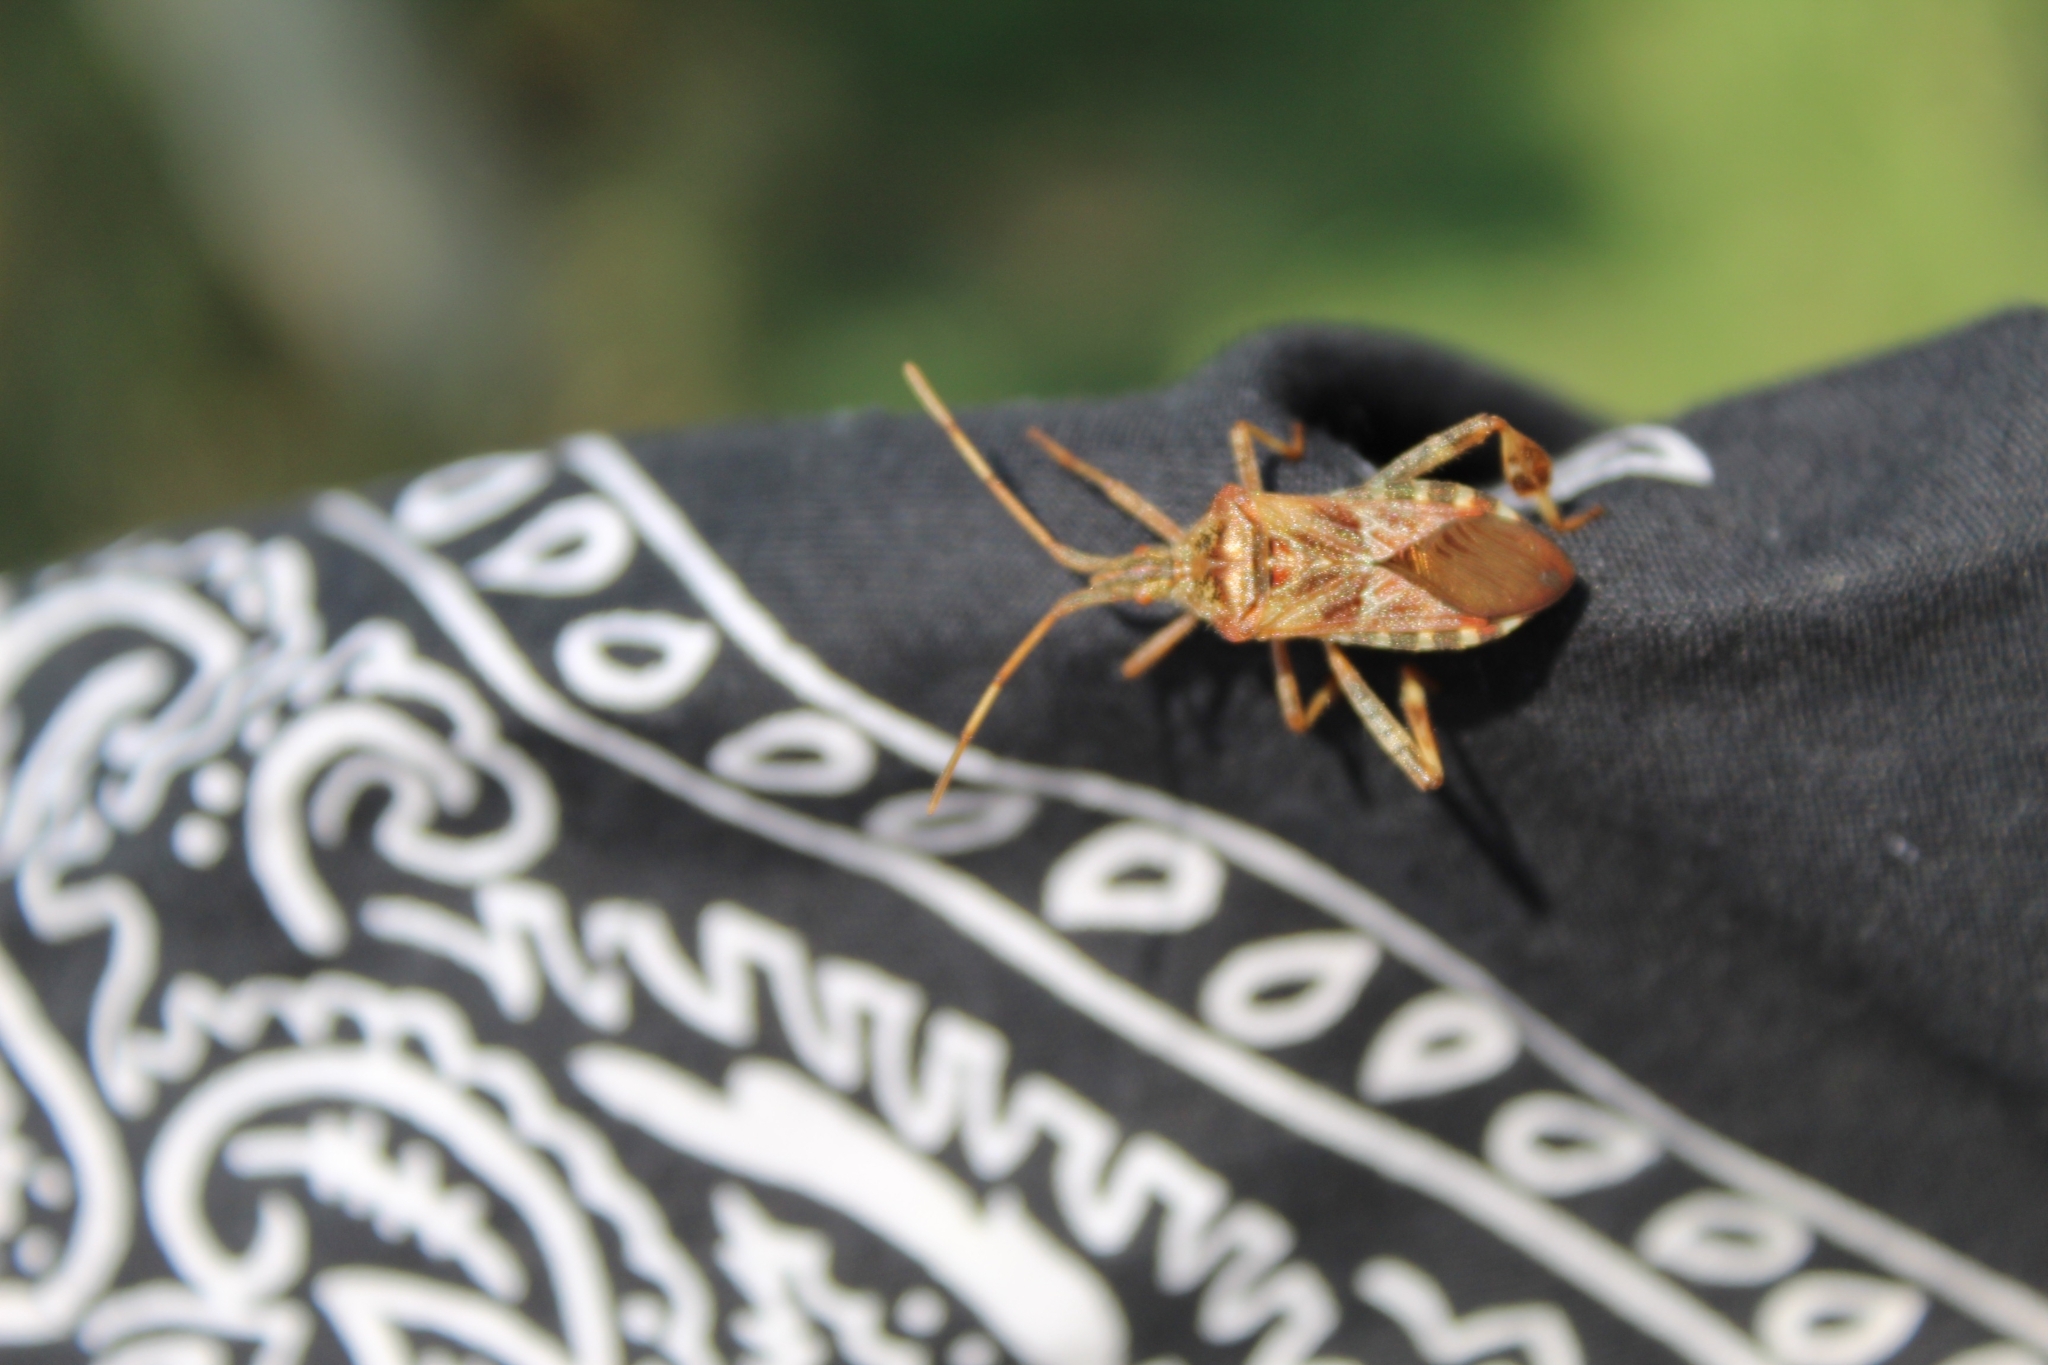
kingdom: Animalia
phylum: Arthropoda
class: Insecta
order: Hemiptera
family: Coreidae
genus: Leptoglossus
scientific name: Leptoglossus occidentalis
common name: Western conifer-seed bug
